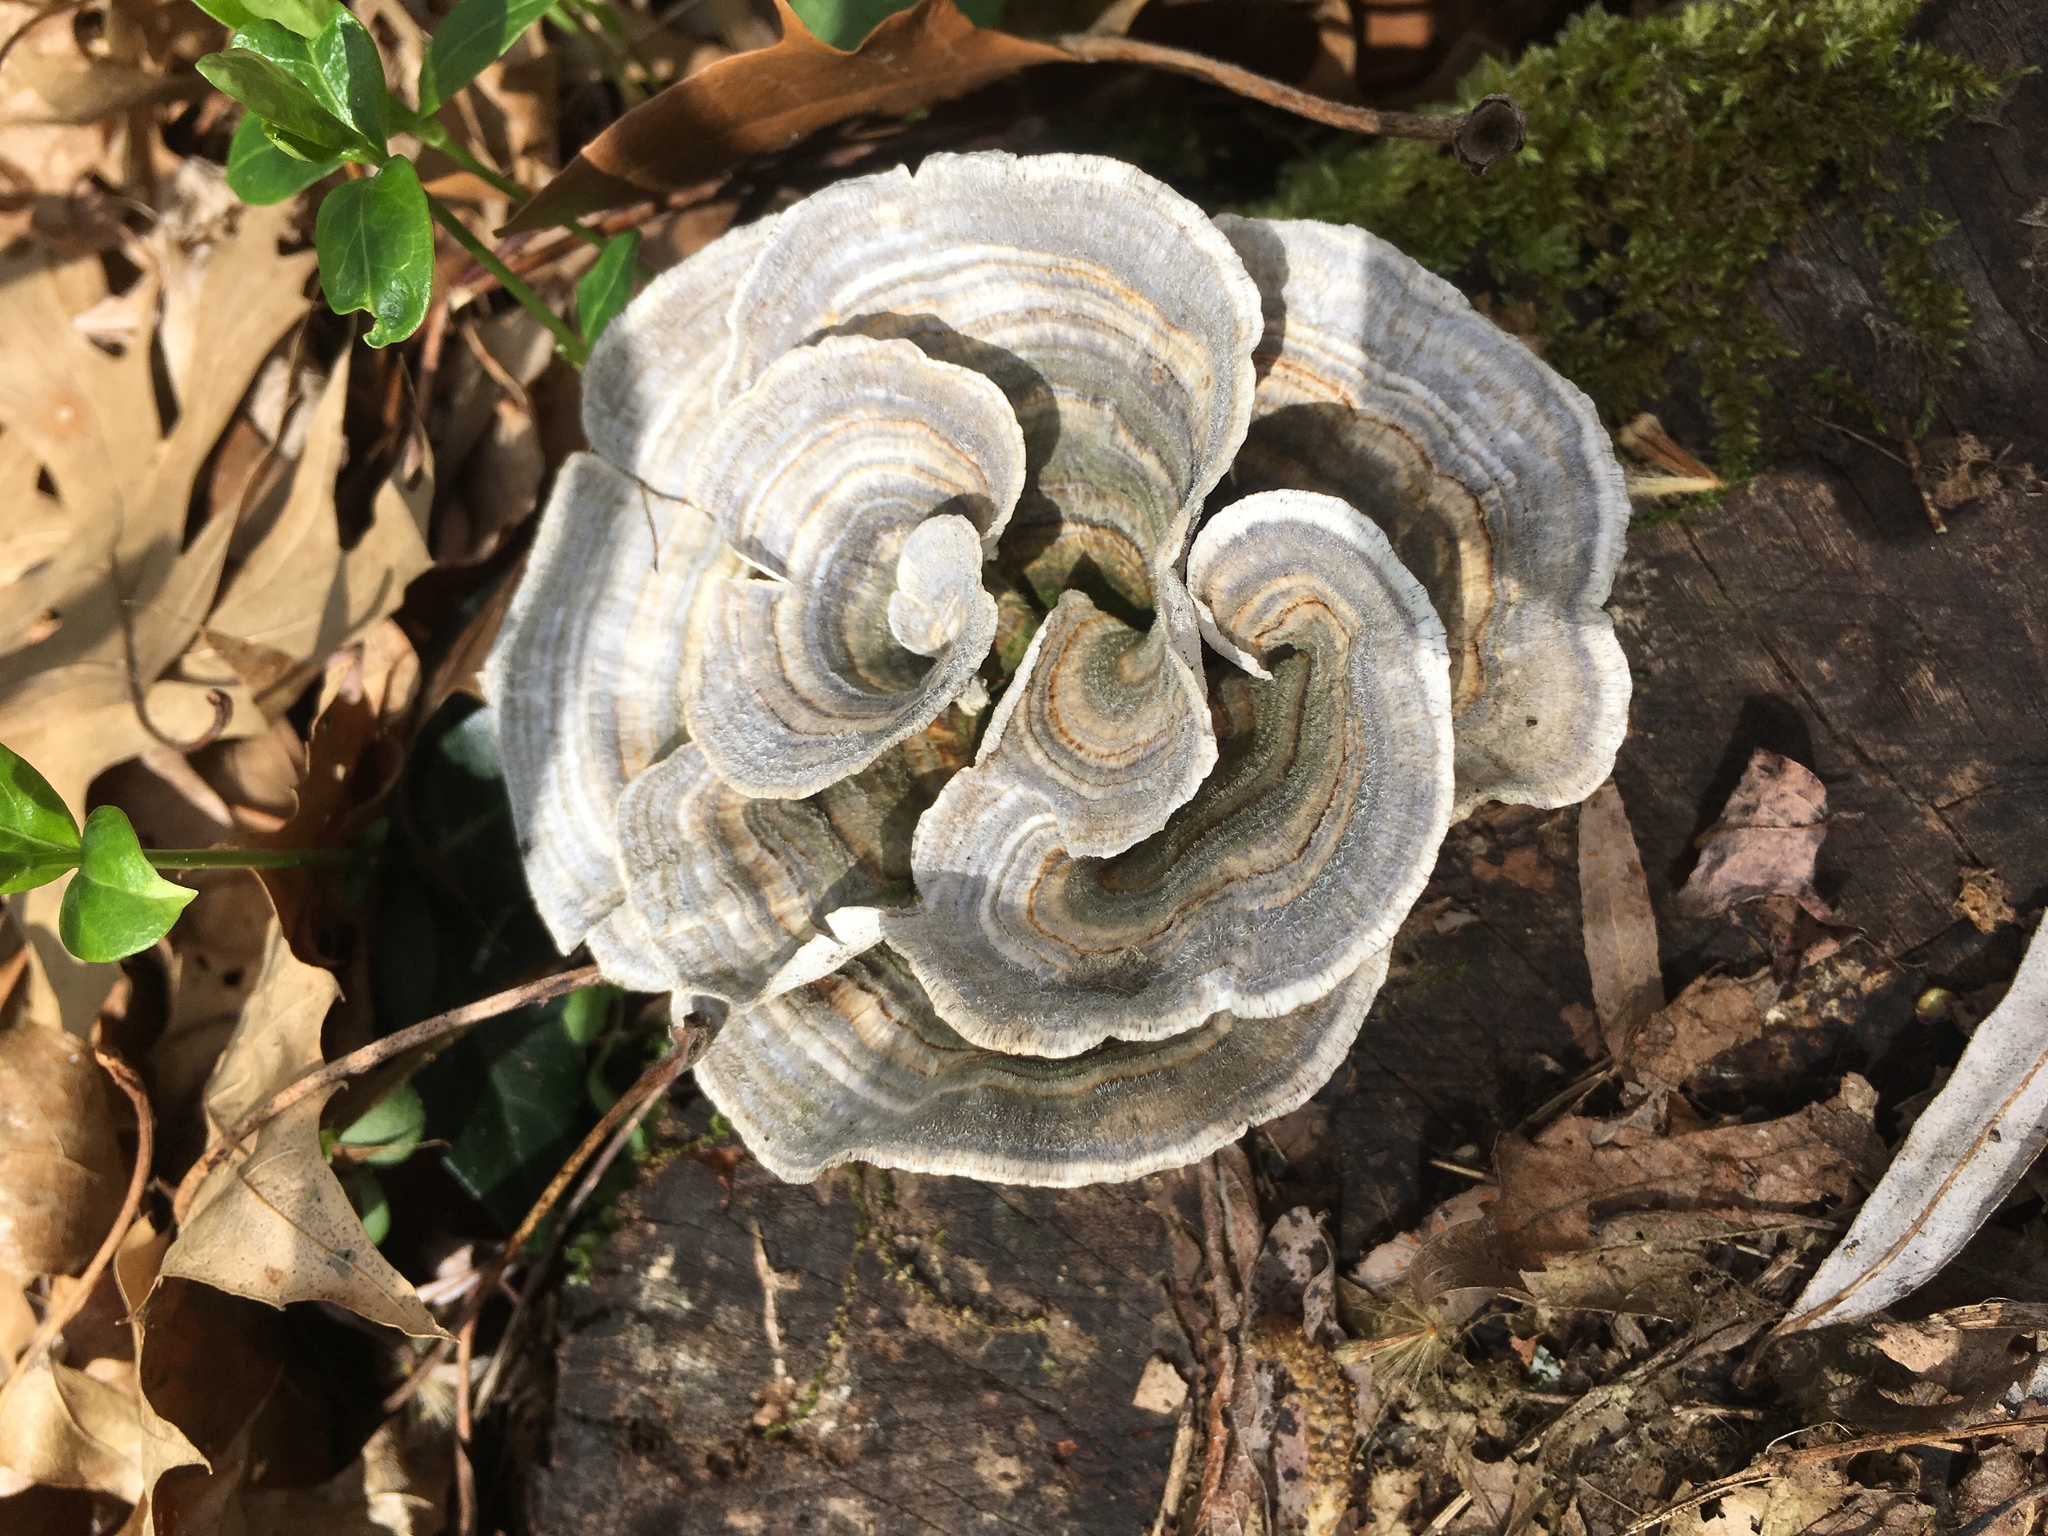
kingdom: Fungi
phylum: Basidiomycota
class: Agaricomycetes
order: Polyporales
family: Polyporaceae
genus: Trametes
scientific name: Trametes versicolor
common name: Turkeytail
